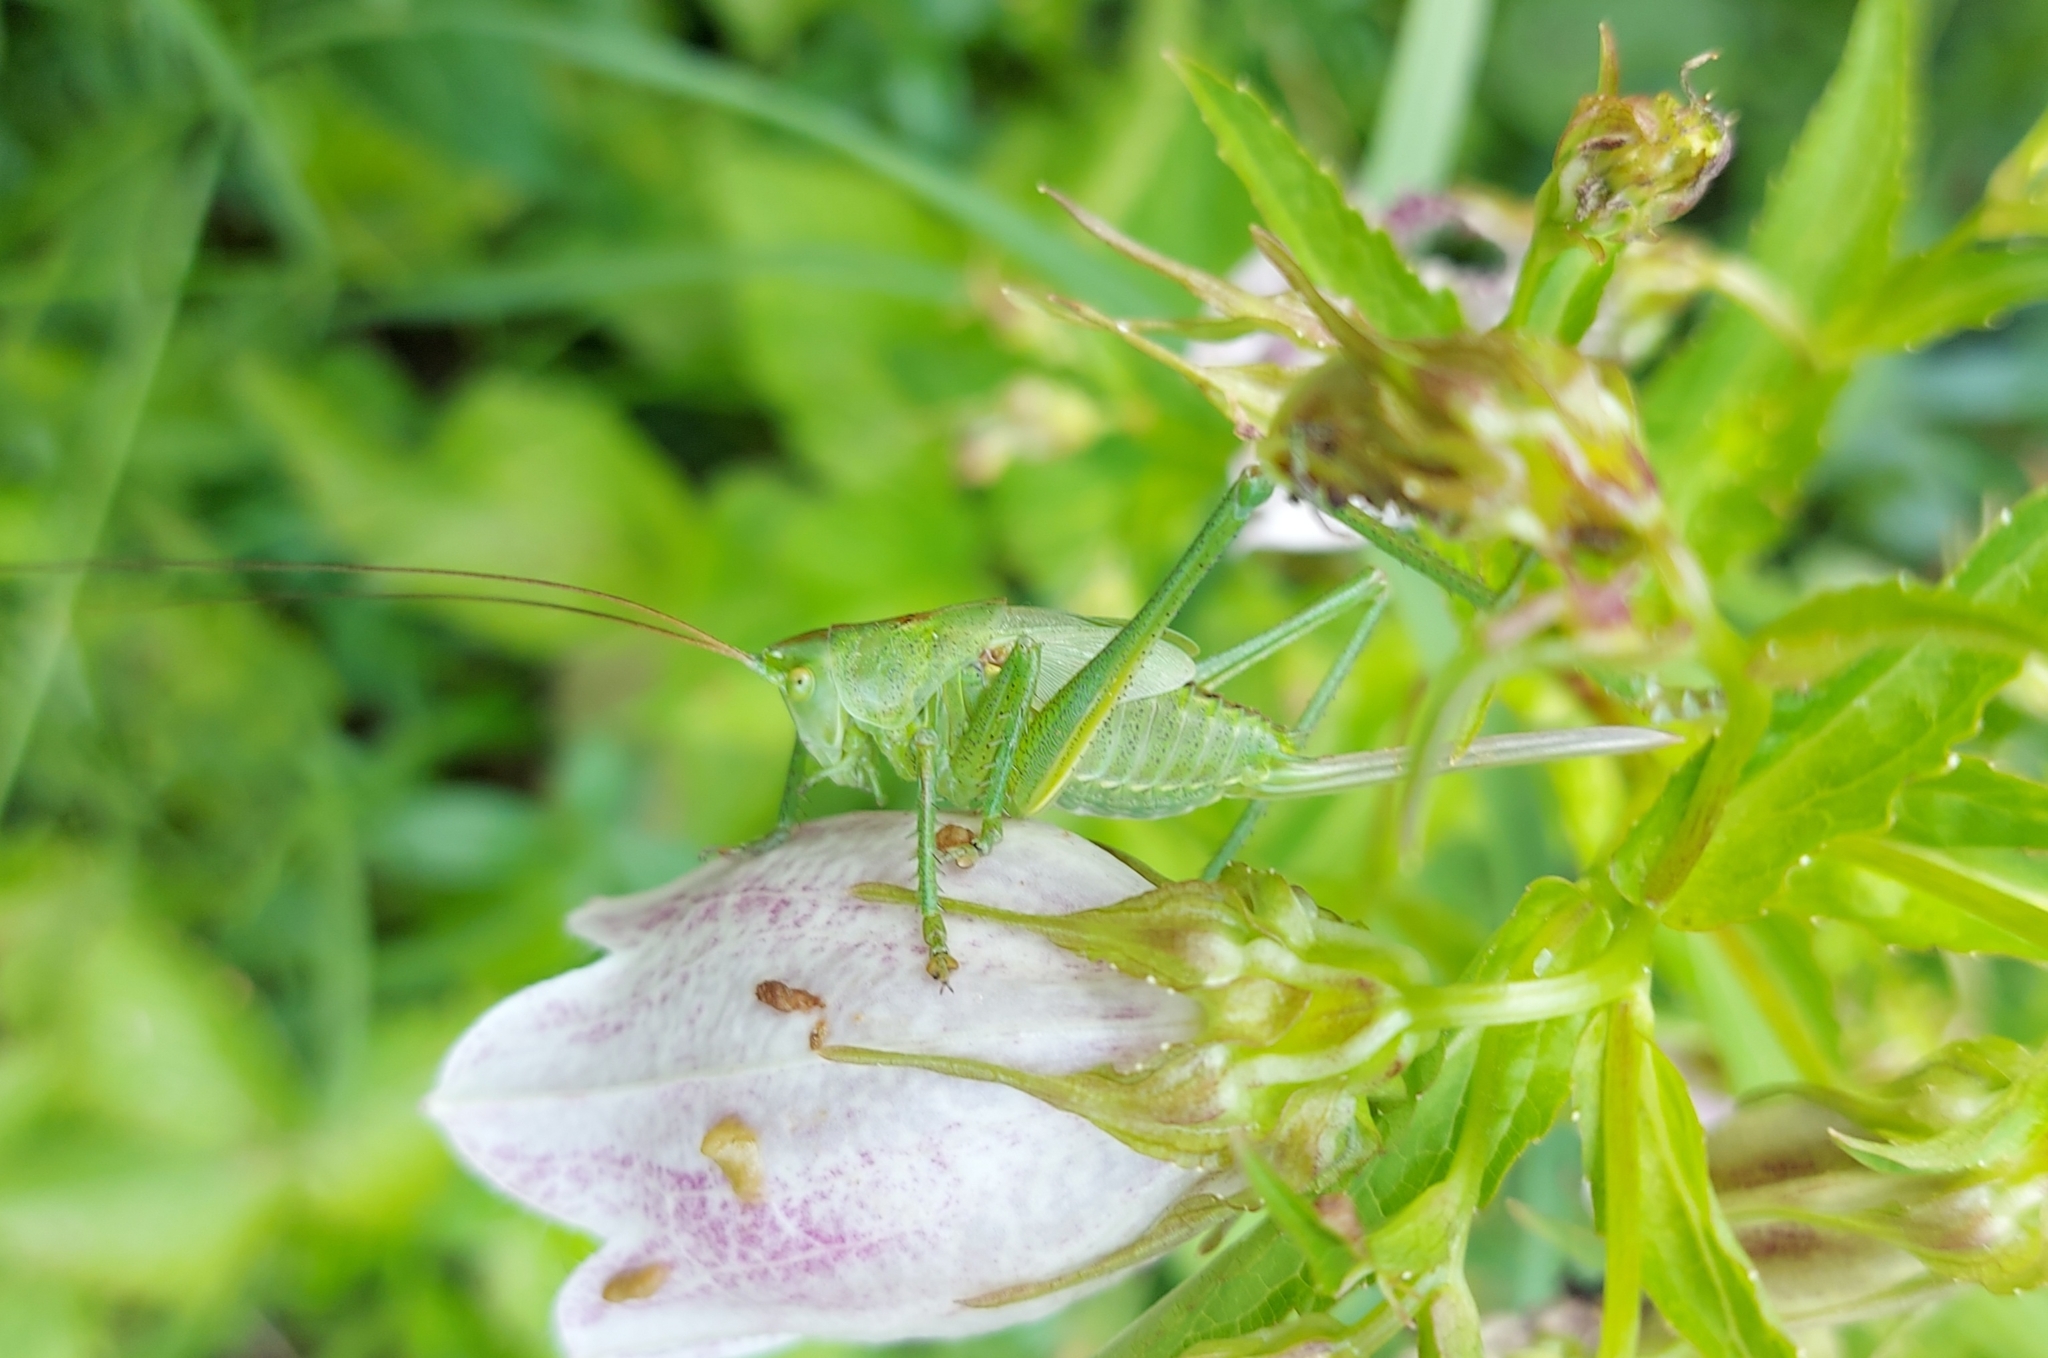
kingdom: Animalia
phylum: Arthropoda
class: Insecta
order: Orthoptera
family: Tettigoniidae
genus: Tettigonia
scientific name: Tettigonia viridissima
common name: Great green bush-cricket
